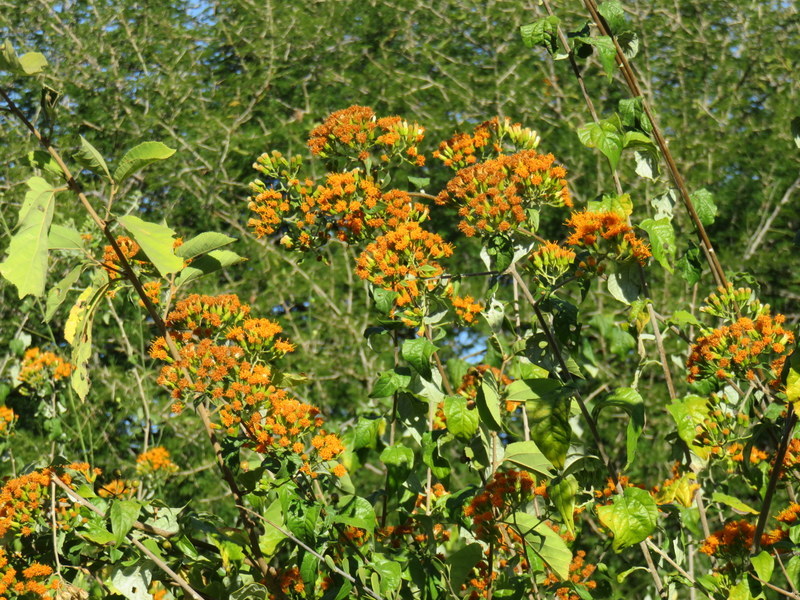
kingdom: Plantae
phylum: Tracheophyta
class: Magnoliopsida
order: Asterales
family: Asteraceae
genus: Distephanus
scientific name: Distephanus divaricatus
